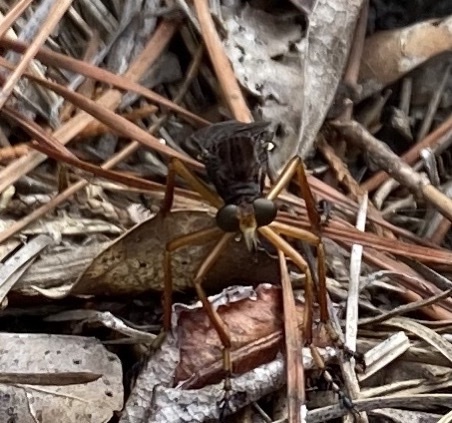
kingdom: Animalia
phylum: Arthropoda
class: Insecta
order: Diptera
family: Asilidae
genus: Diogmites
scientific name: Diogmites platypterus
